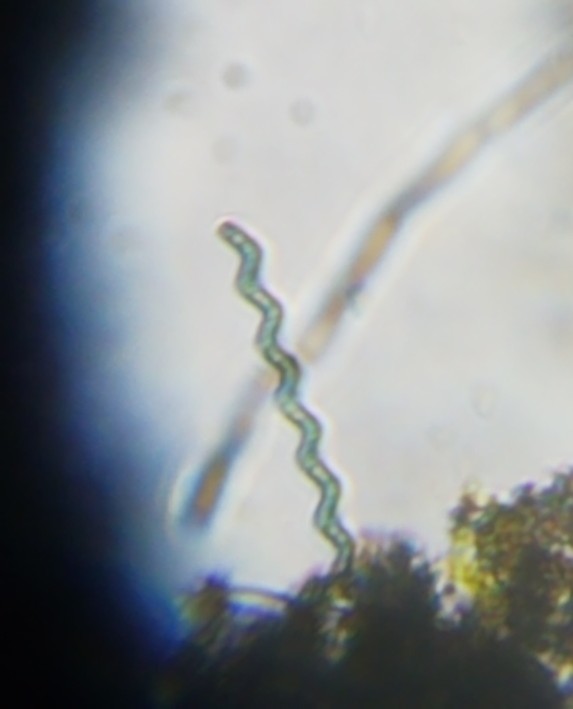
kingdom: Bacteria
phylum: Cyanobacteria
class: Cyanobacteriia
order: Cyanobacteriales
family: Microcoleaceae
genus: Arthrospira
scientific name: Arthrospira jenneri
